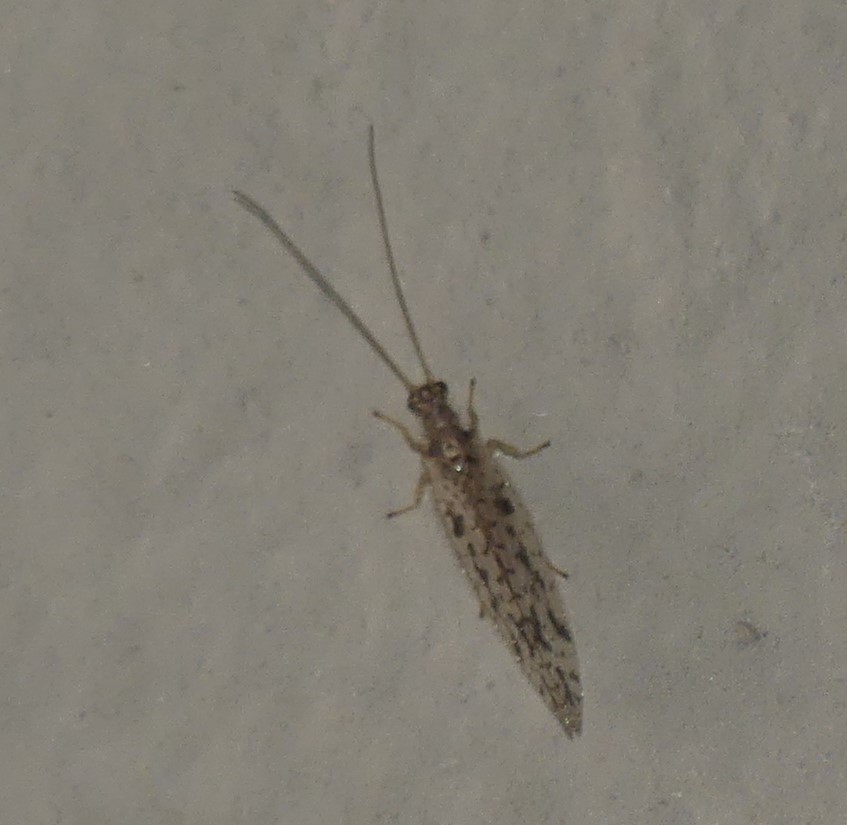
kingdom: Animalia
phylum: Arthropoda
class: Insecta
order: Neuroptera
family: Hemerobiidae
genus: Micromus
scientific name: Micromus variegatus
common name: Brown lacewing
